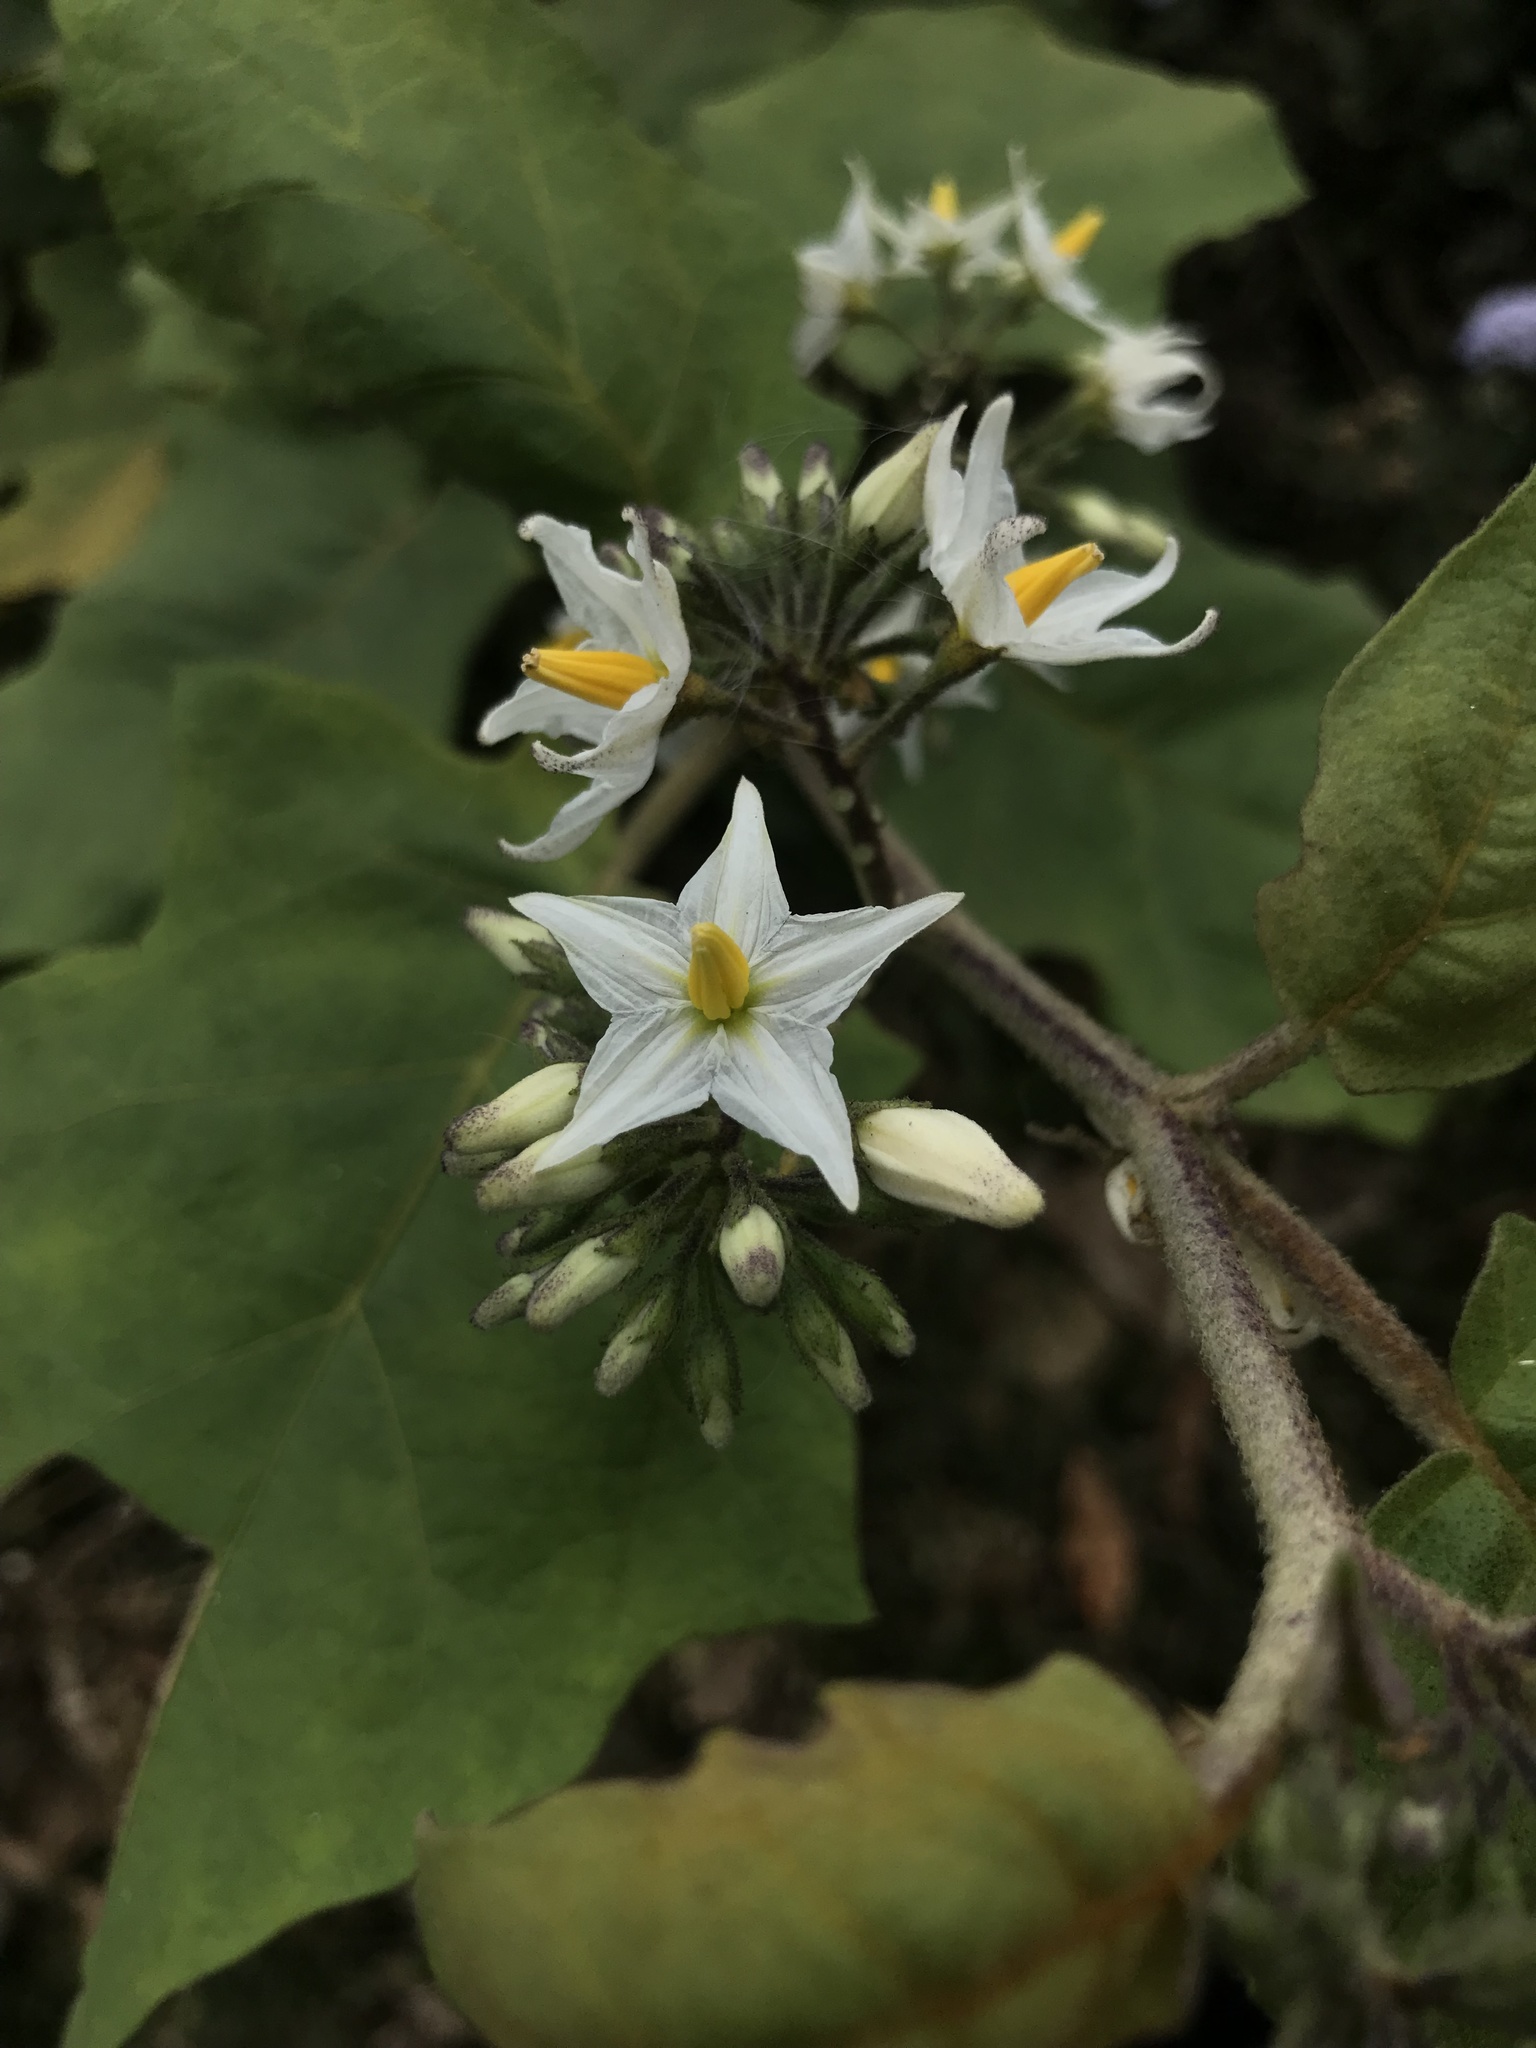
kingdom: Plantae
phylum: Tracheophyta
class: Magnoliopsida
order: Solanales
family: Solanaceae
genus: Solanum
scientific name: Solanum torvum
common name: Turkey berry
